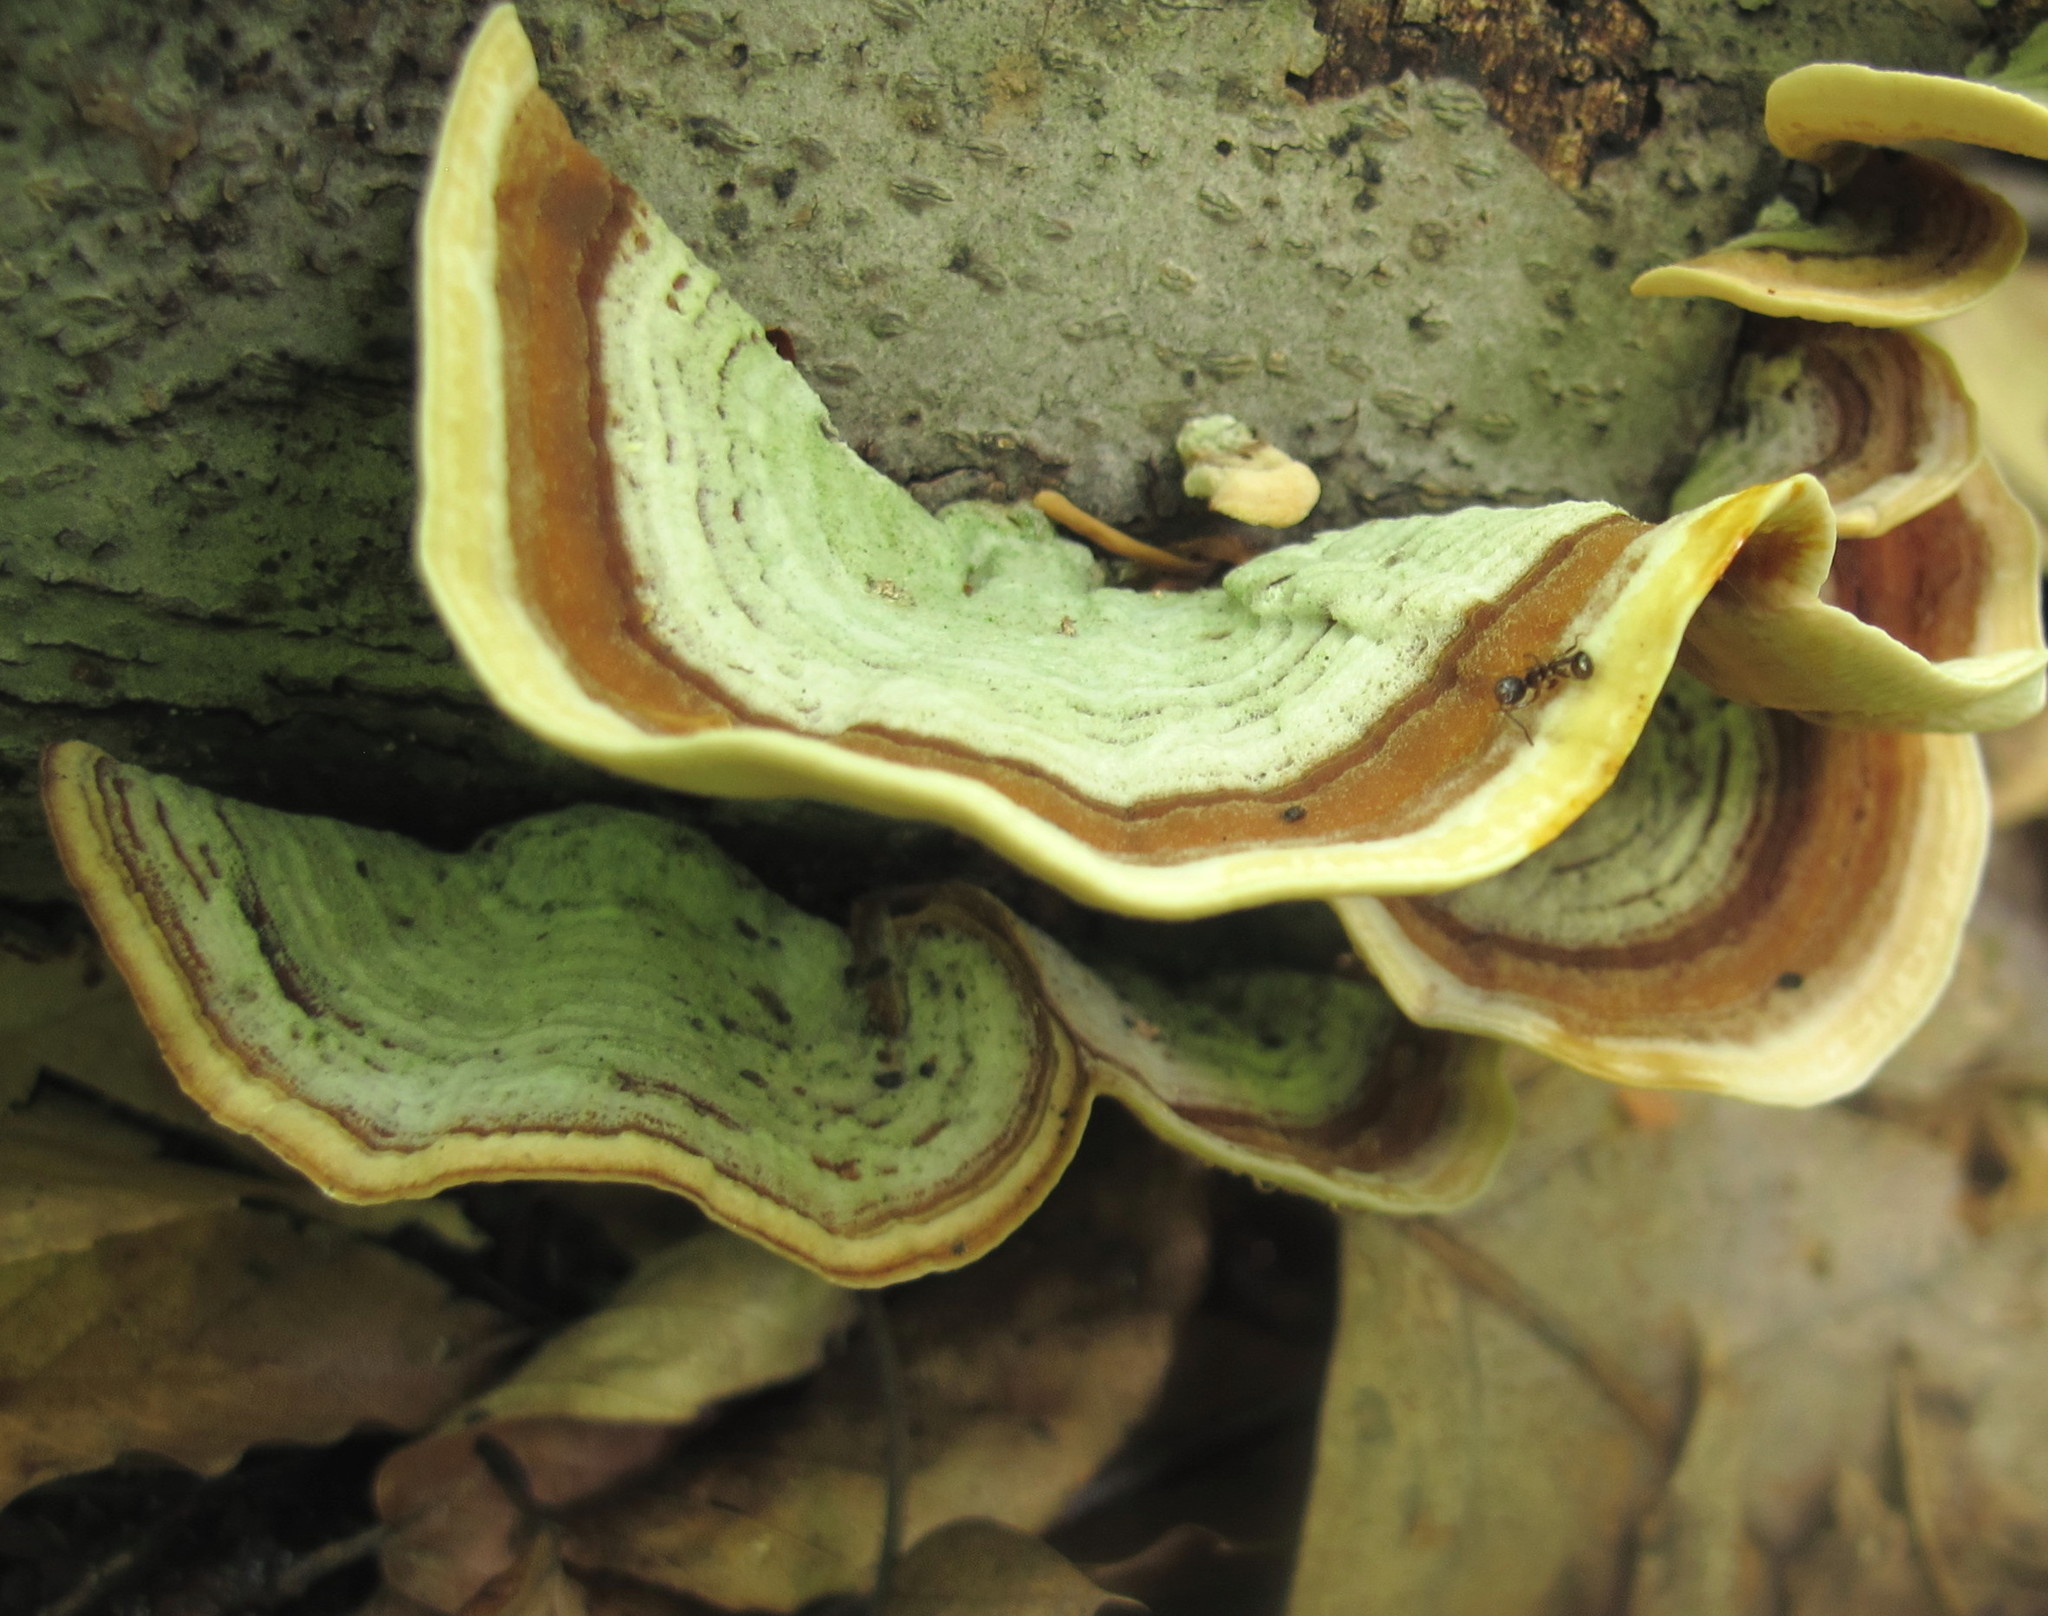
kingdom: Fungi
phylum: Basidiomycota
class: Agaricomycetes
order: Russulales
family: Stereaceae
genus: Stereum
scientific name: Stereum ostrea
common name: False turkeytail
